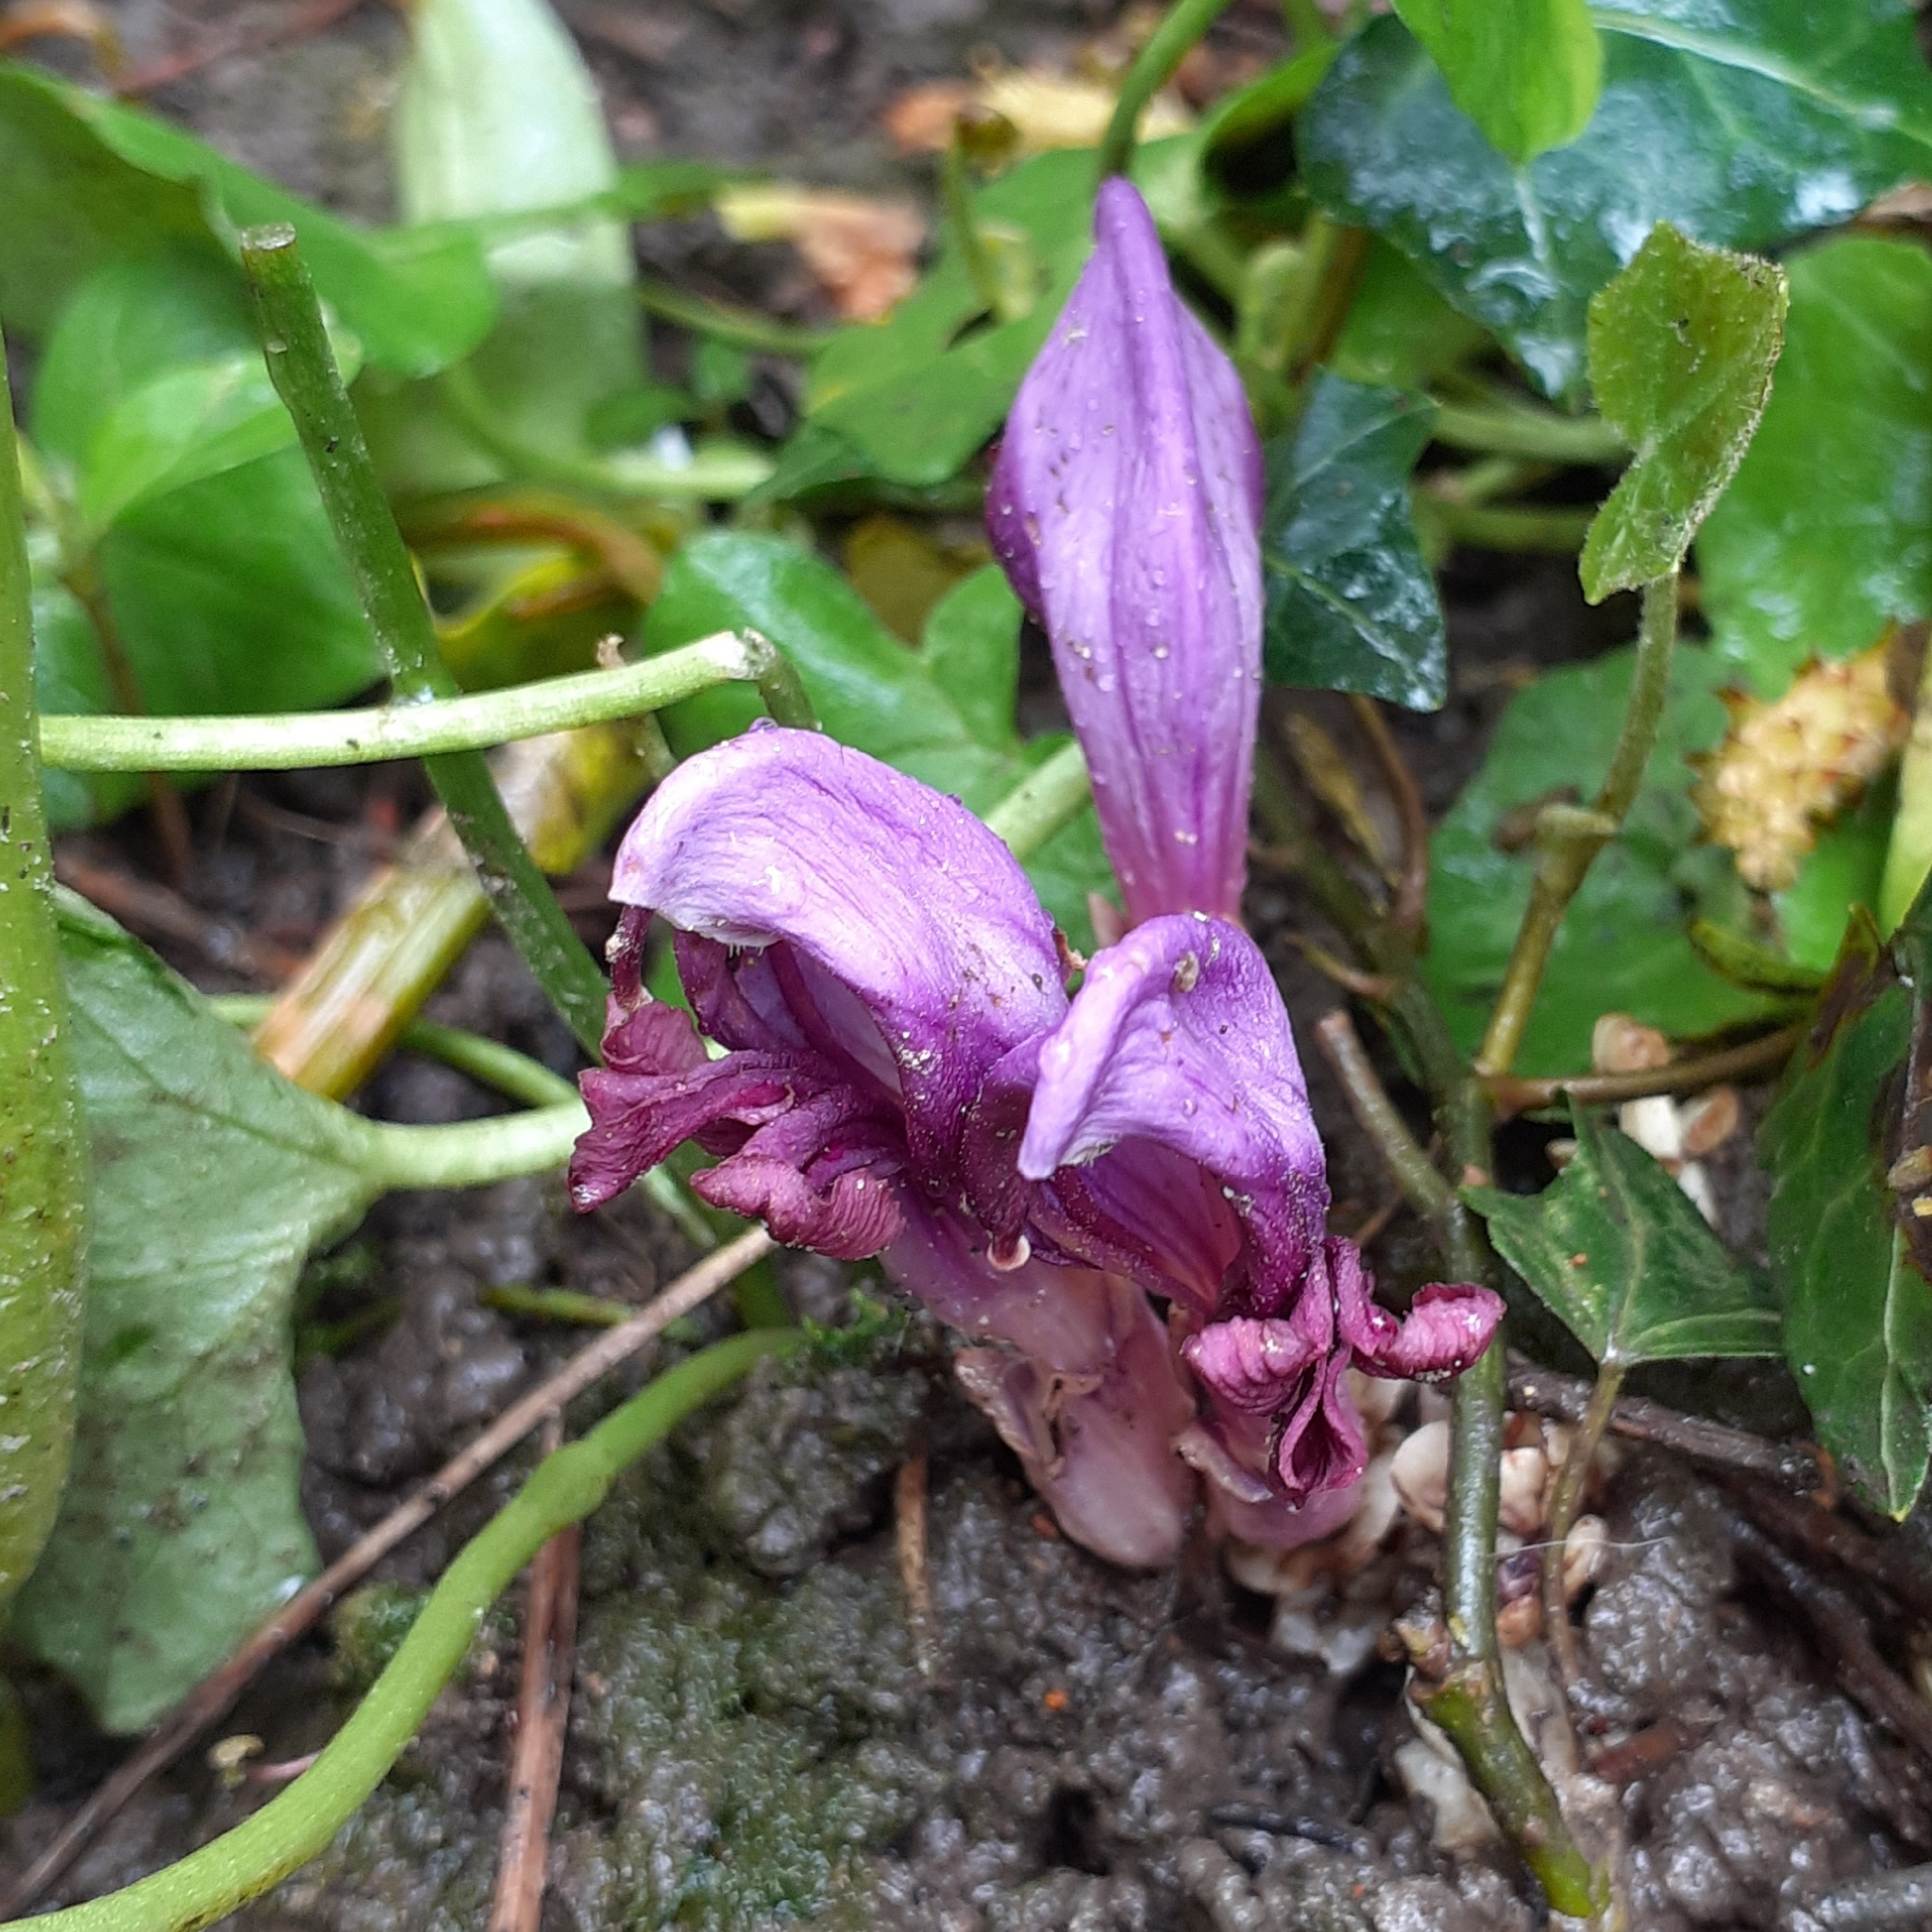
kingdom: Plantae
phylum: Tracheophyta
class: Magnoliopsida
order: Lamiales
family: Orobanchaceae
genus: Lathraea
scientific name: Lathraea clandestina
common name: Purple toothwort
